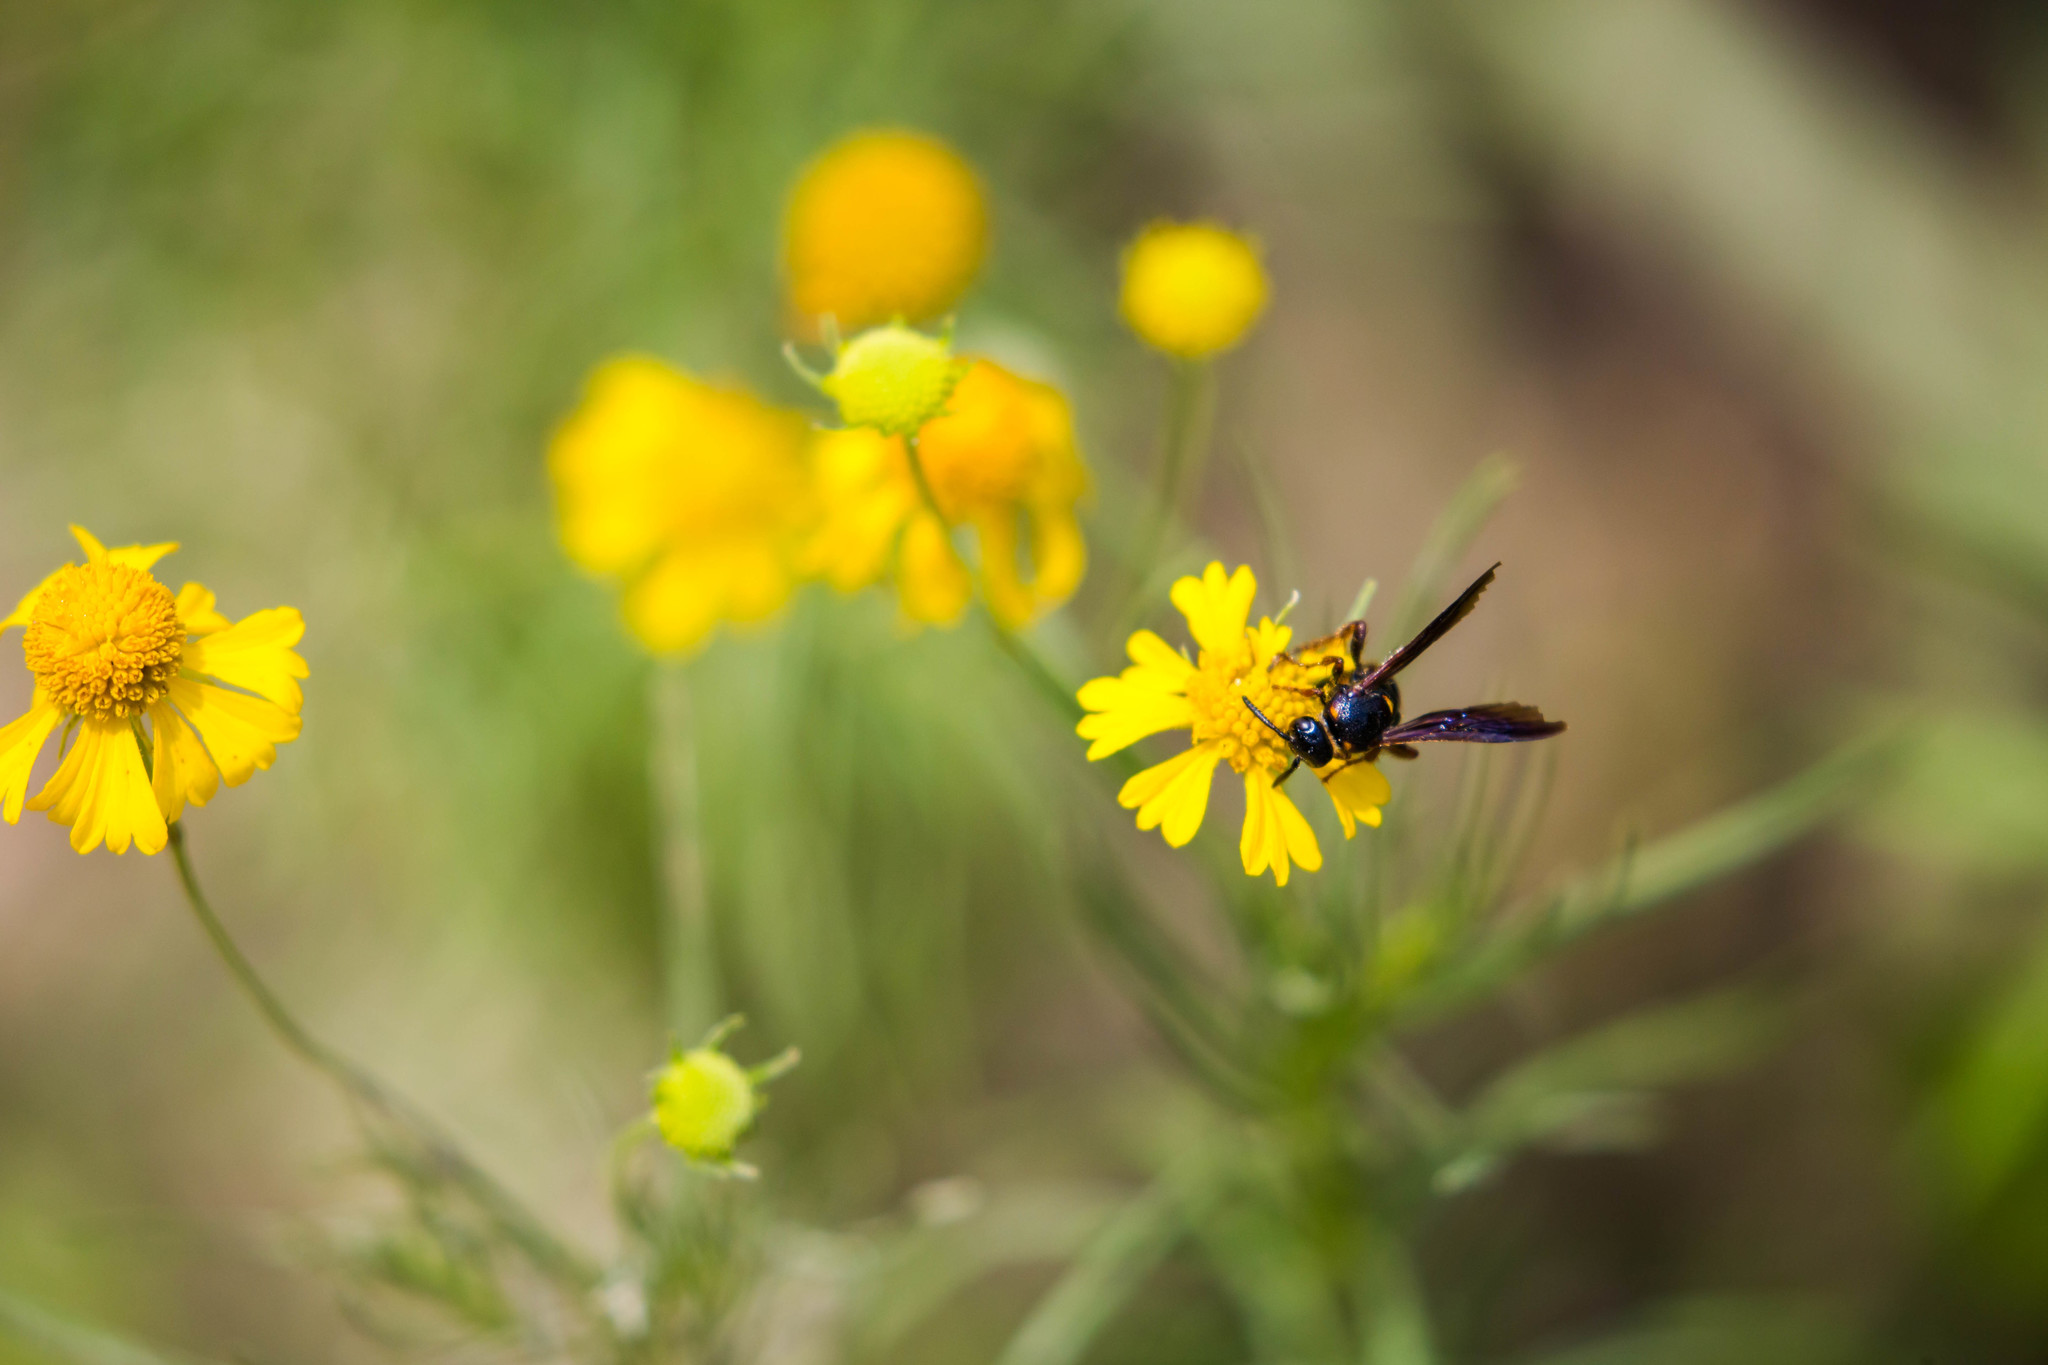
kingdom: Animalia
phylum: Arthropoda
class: Insecta
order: Hymenoptera
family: Scoliidae
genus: Scolia
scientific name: Scolia nobilitata
